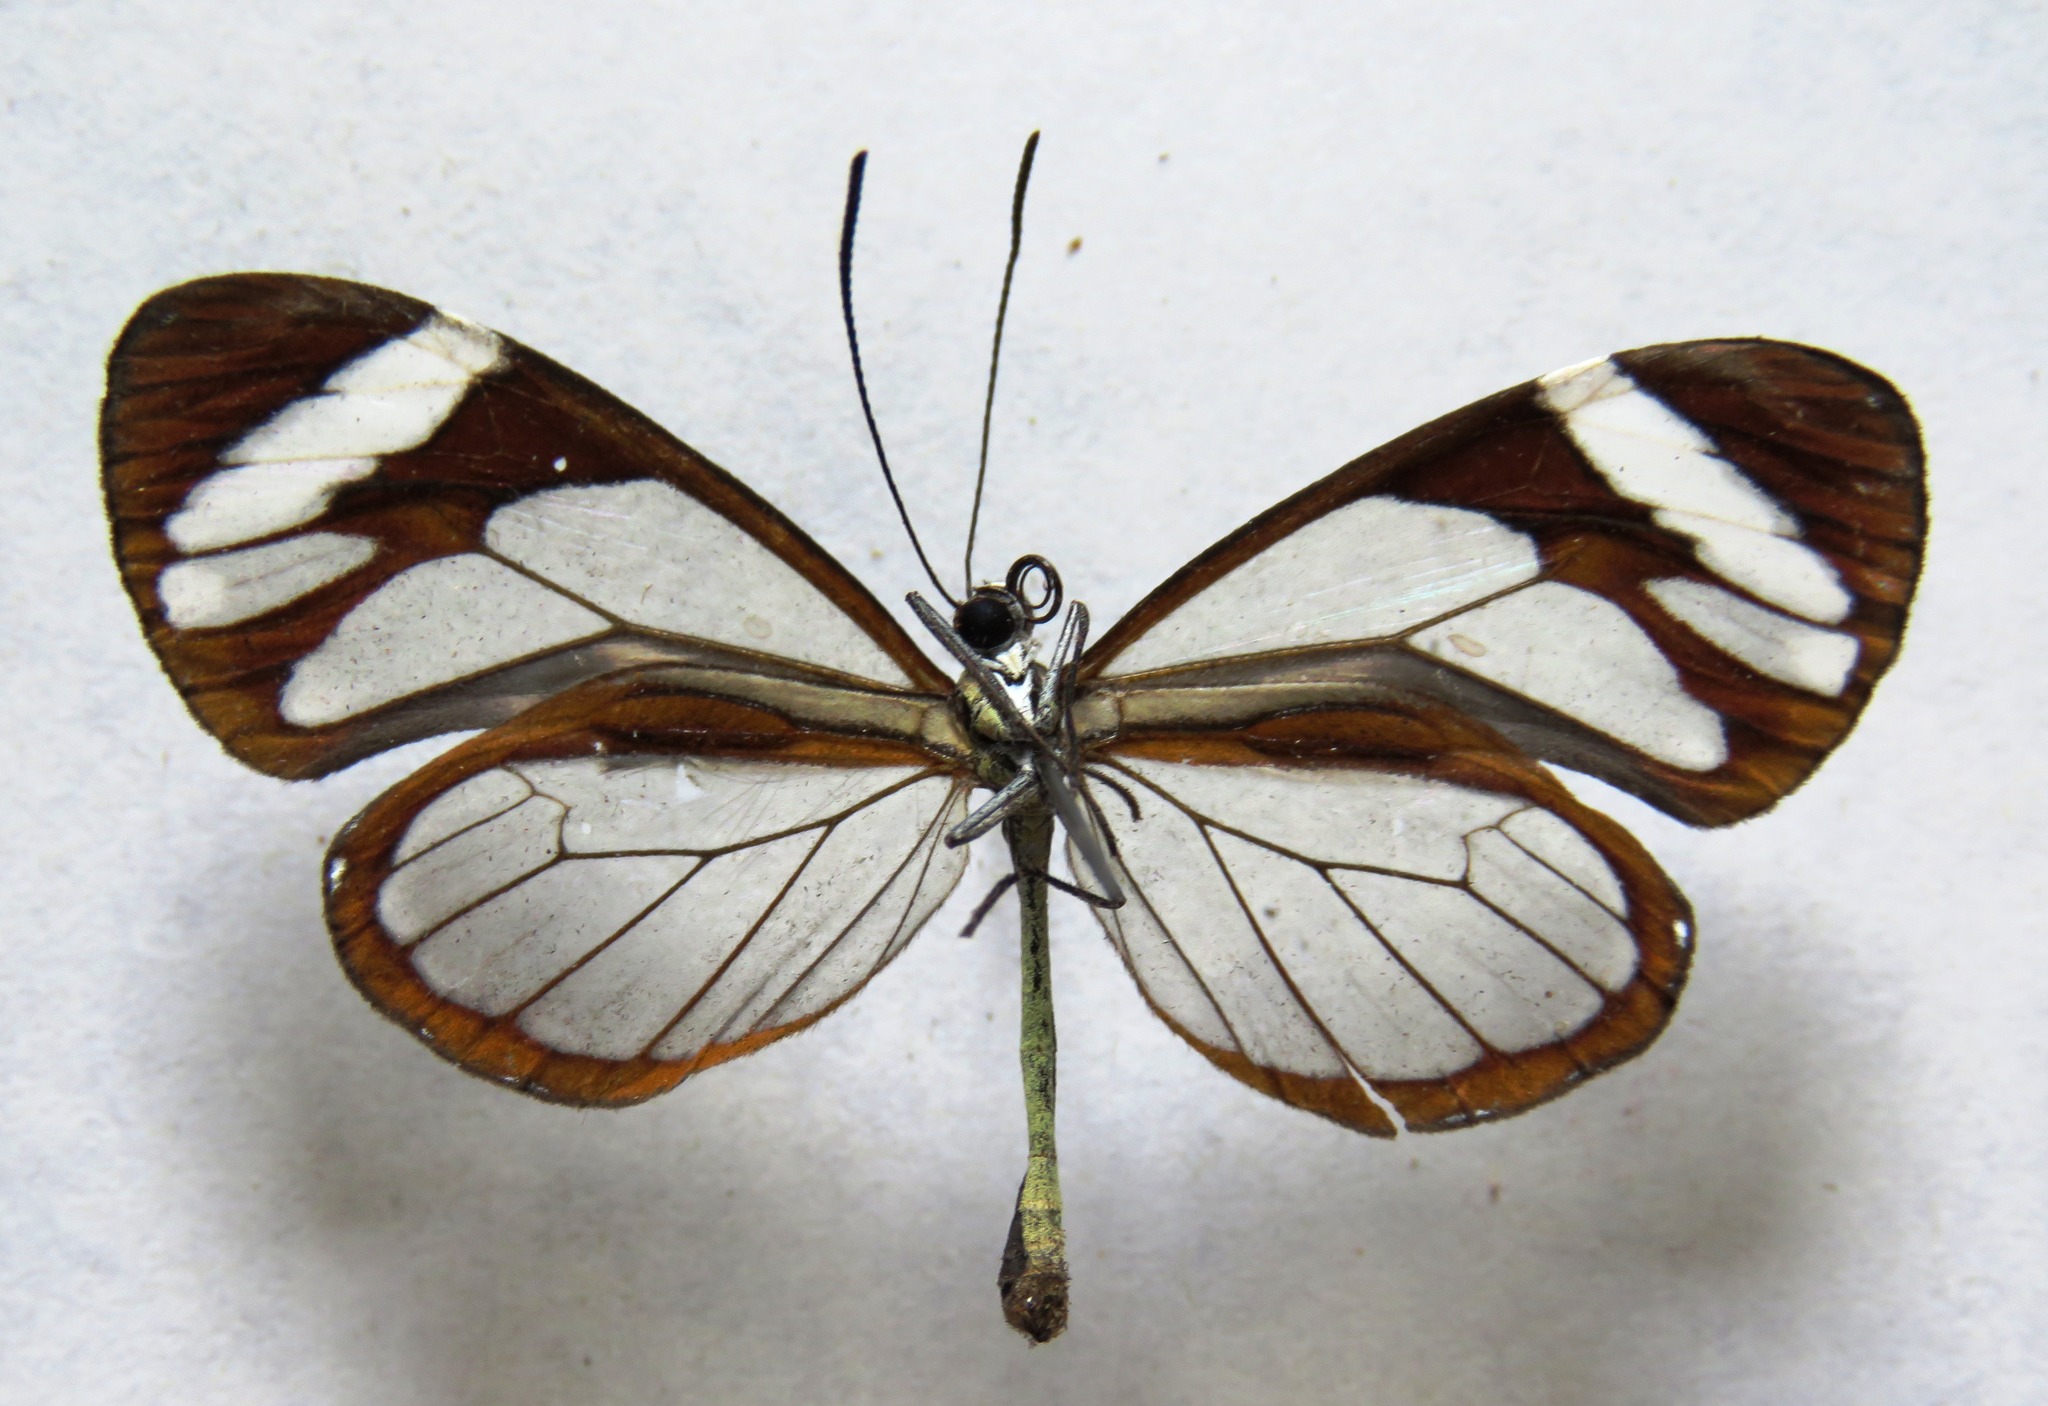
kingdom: Animalia
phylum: Arthropoda
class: Insecta
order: Lepidoptera
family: Nymphalidae
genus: Ithomia
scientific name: Ithomia patilla
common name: Patilla clearwing
